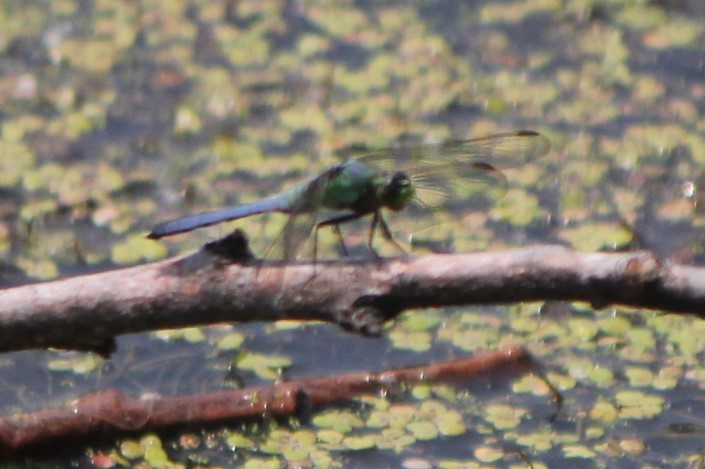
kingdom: Animalia
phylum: Arthropoda
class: Insecta
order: Odonata
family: Libellulidae
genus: Erythemis
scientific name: Erythemis simplicicollis
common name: Eastern pondhawk
